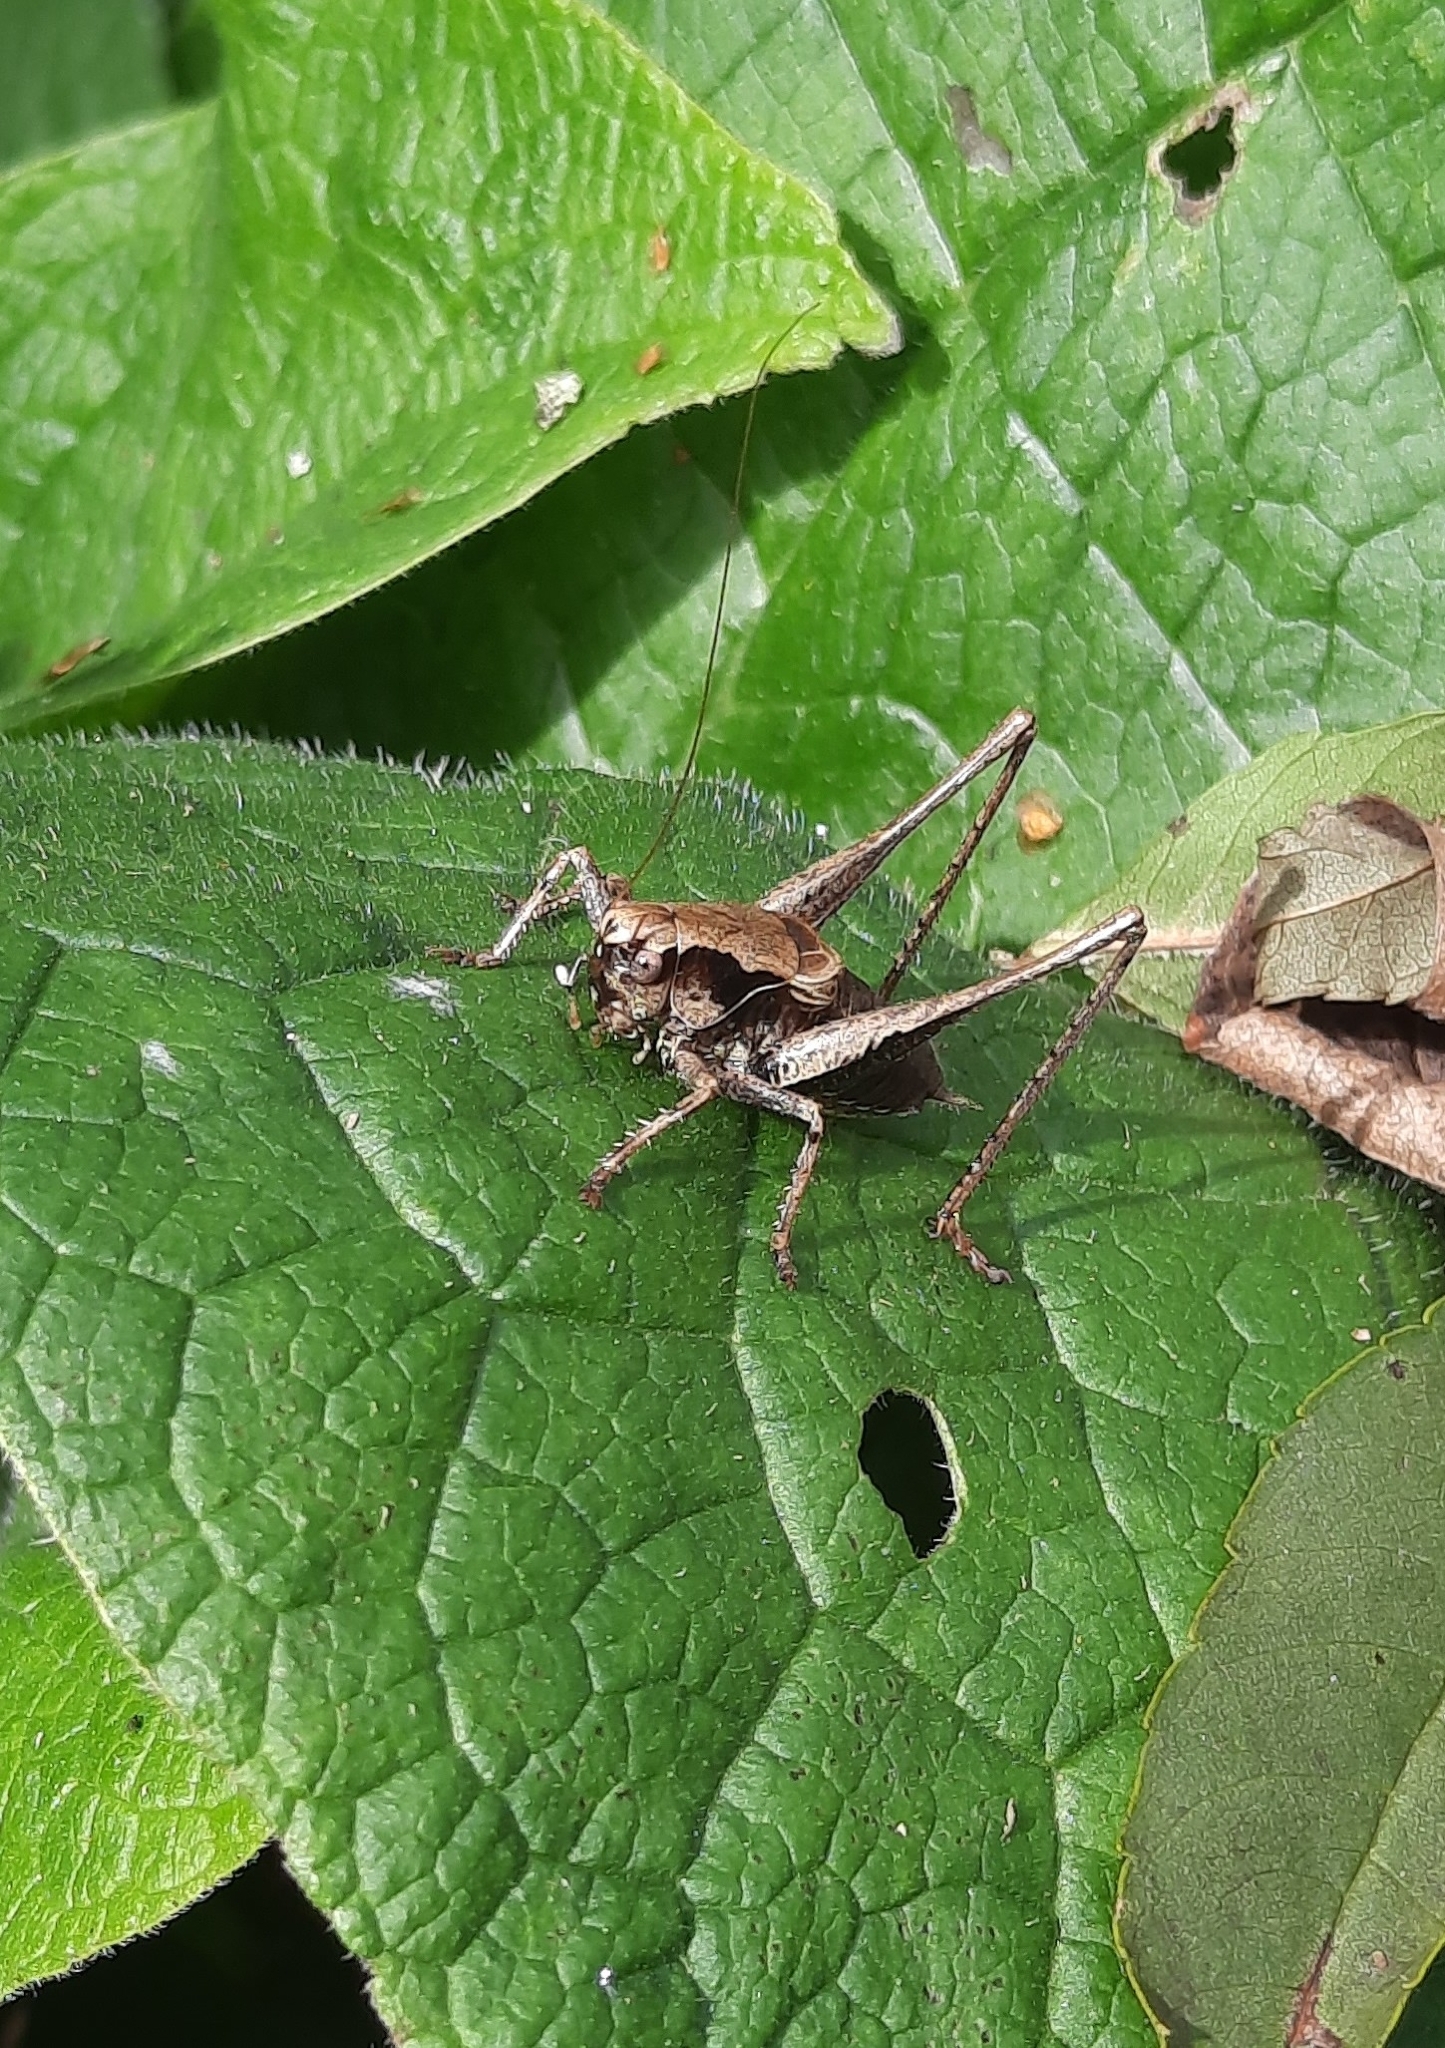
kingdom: Animalia
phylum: Arthropoda
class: Insecta
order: Orthoptera
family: Tettigoniidae
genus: Pholidoptera
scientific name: Pholidoptera griseoaptera
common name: Dark bush-cricket
